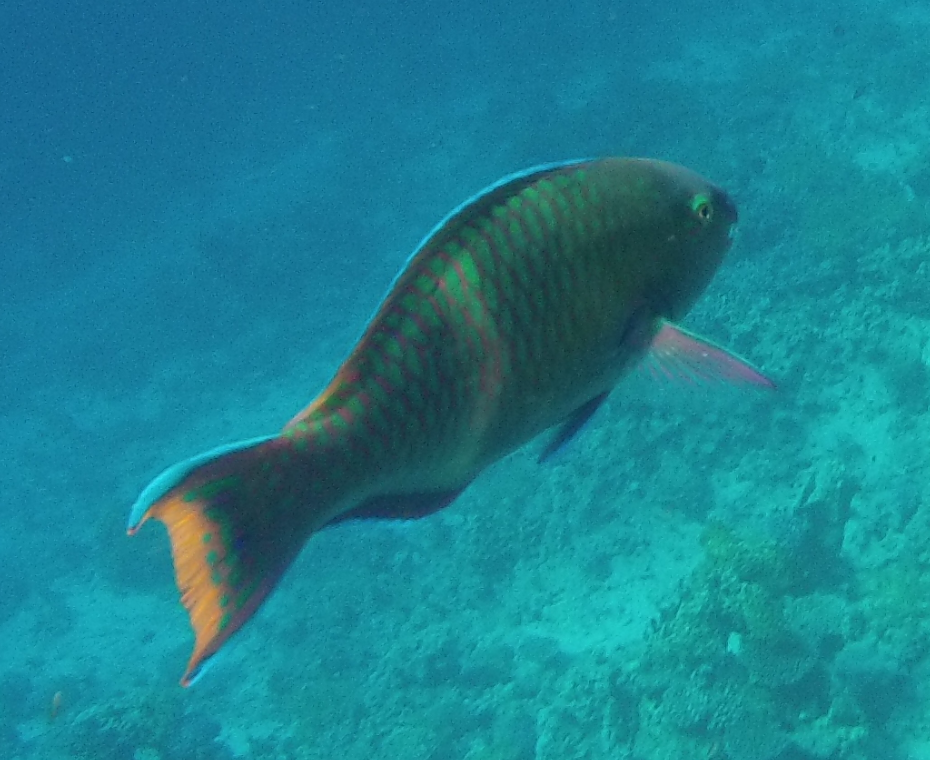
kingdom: Animalia
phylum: Chordata
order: Perciformes
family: Scaridae
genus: Scarus
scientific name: Scarus fuscopurpureus
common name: Purple-brown parrotfish
